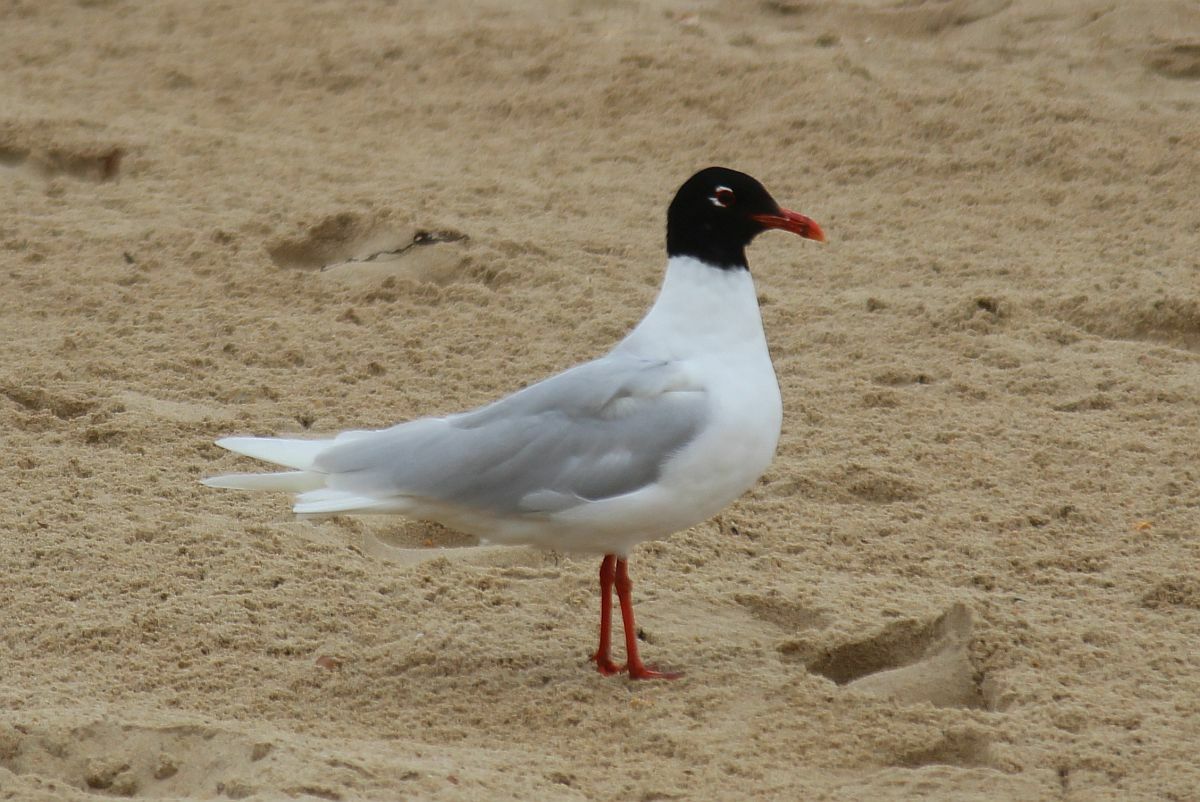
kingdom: Animalia
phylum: Chordata
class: Aves
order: Charadriiformes
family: Laridae
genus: Ichthyaetus
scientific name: Ichthyaetus melanocephalus
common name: Mediterranean gull
